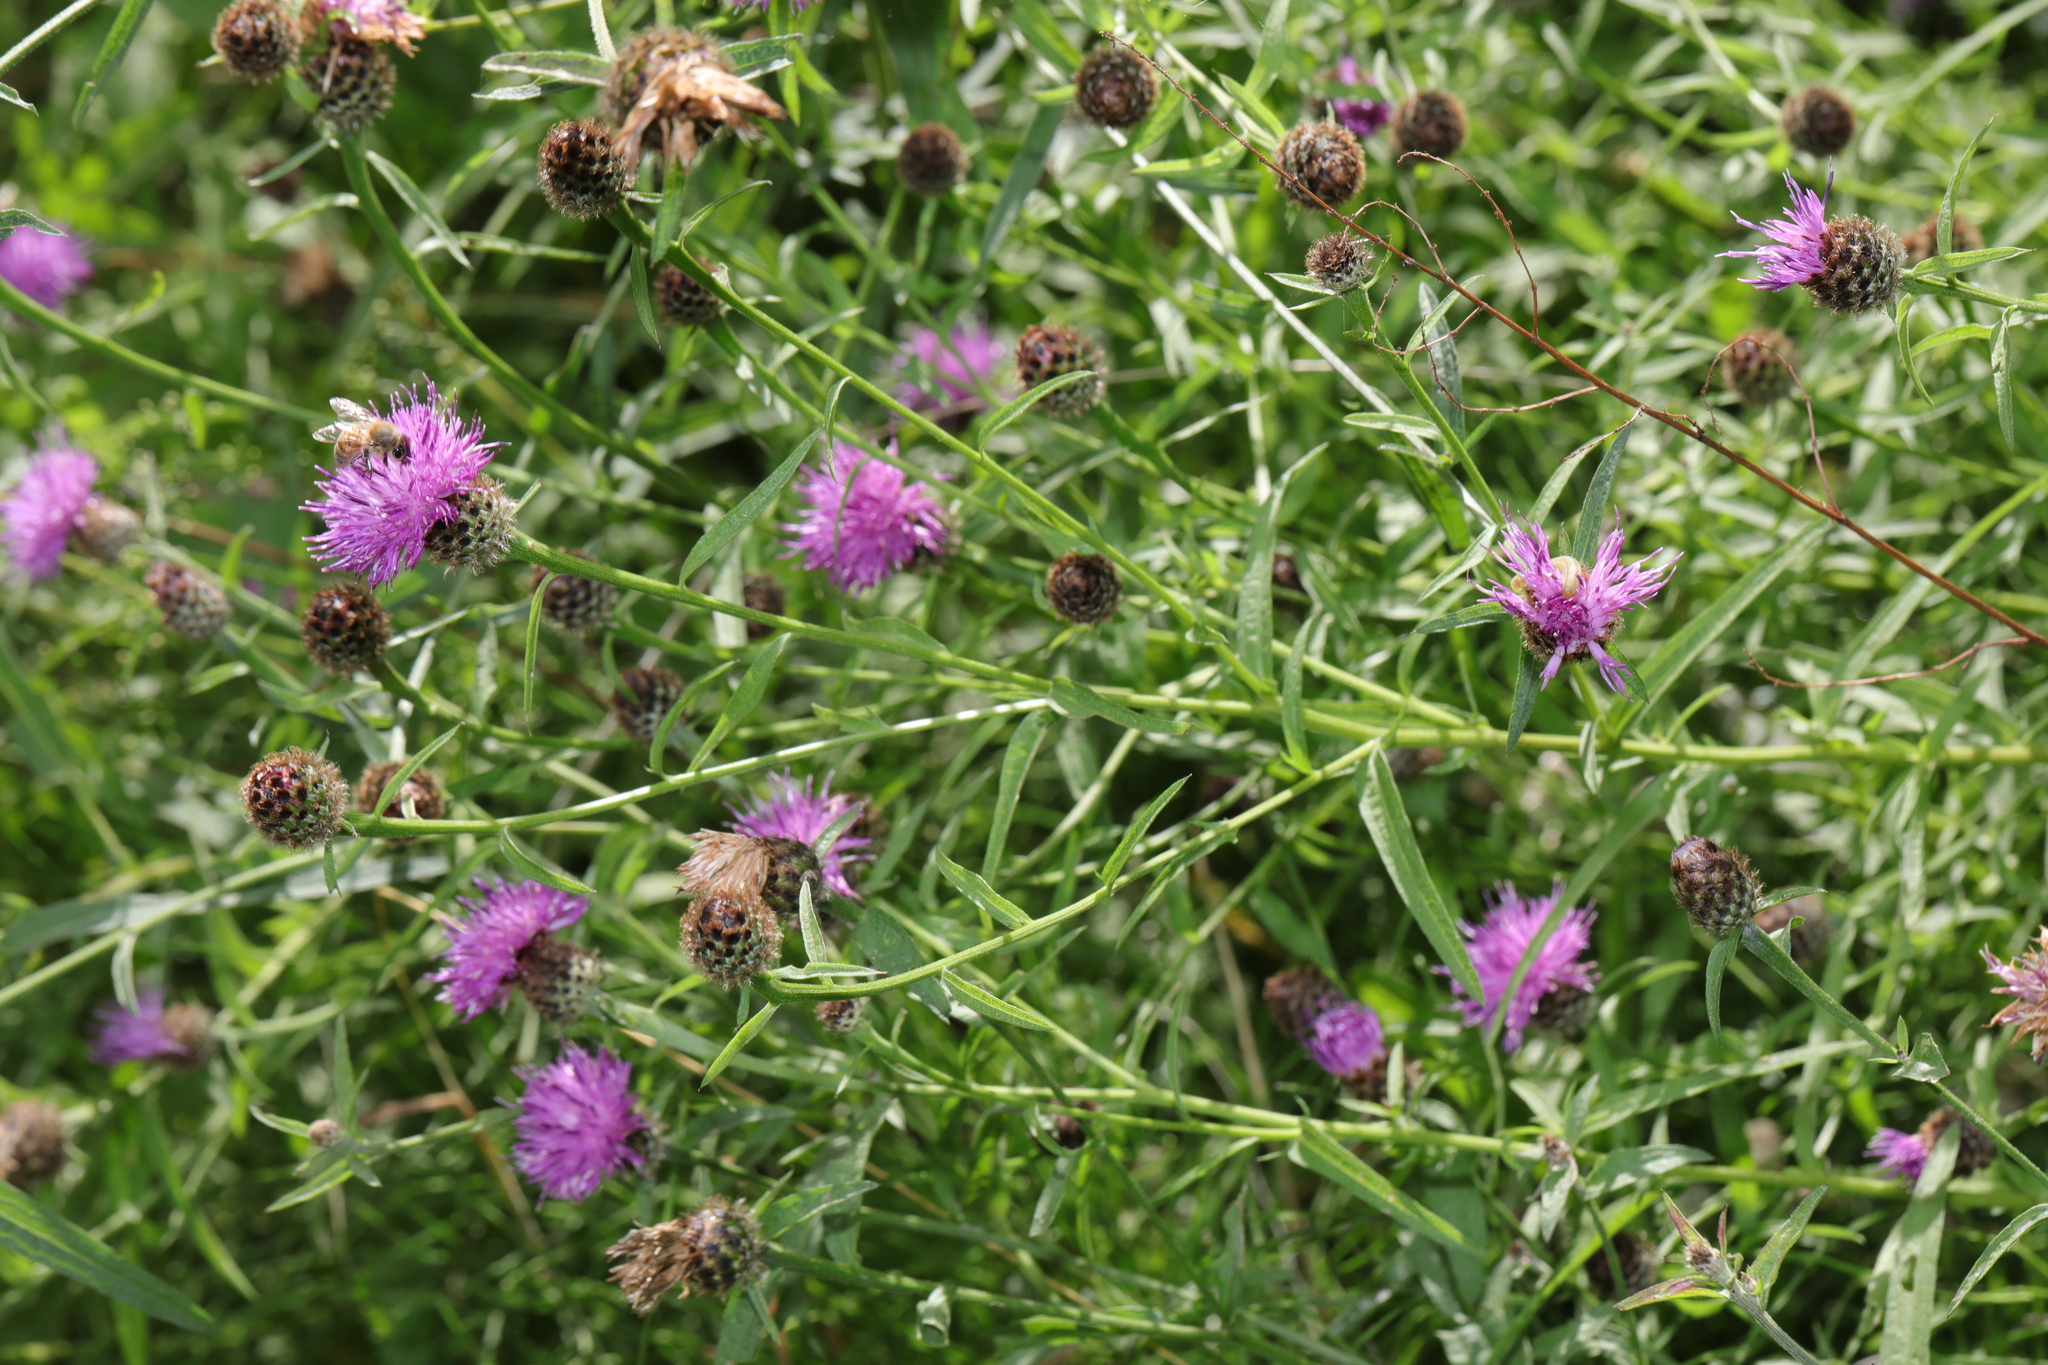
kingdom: Plantae
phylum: Tracheophyta
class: Magnoliopsida
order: Asterales
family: Asteraceae
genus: Centaurea
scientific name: Centaurea nigra
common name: Lesser knapweed
